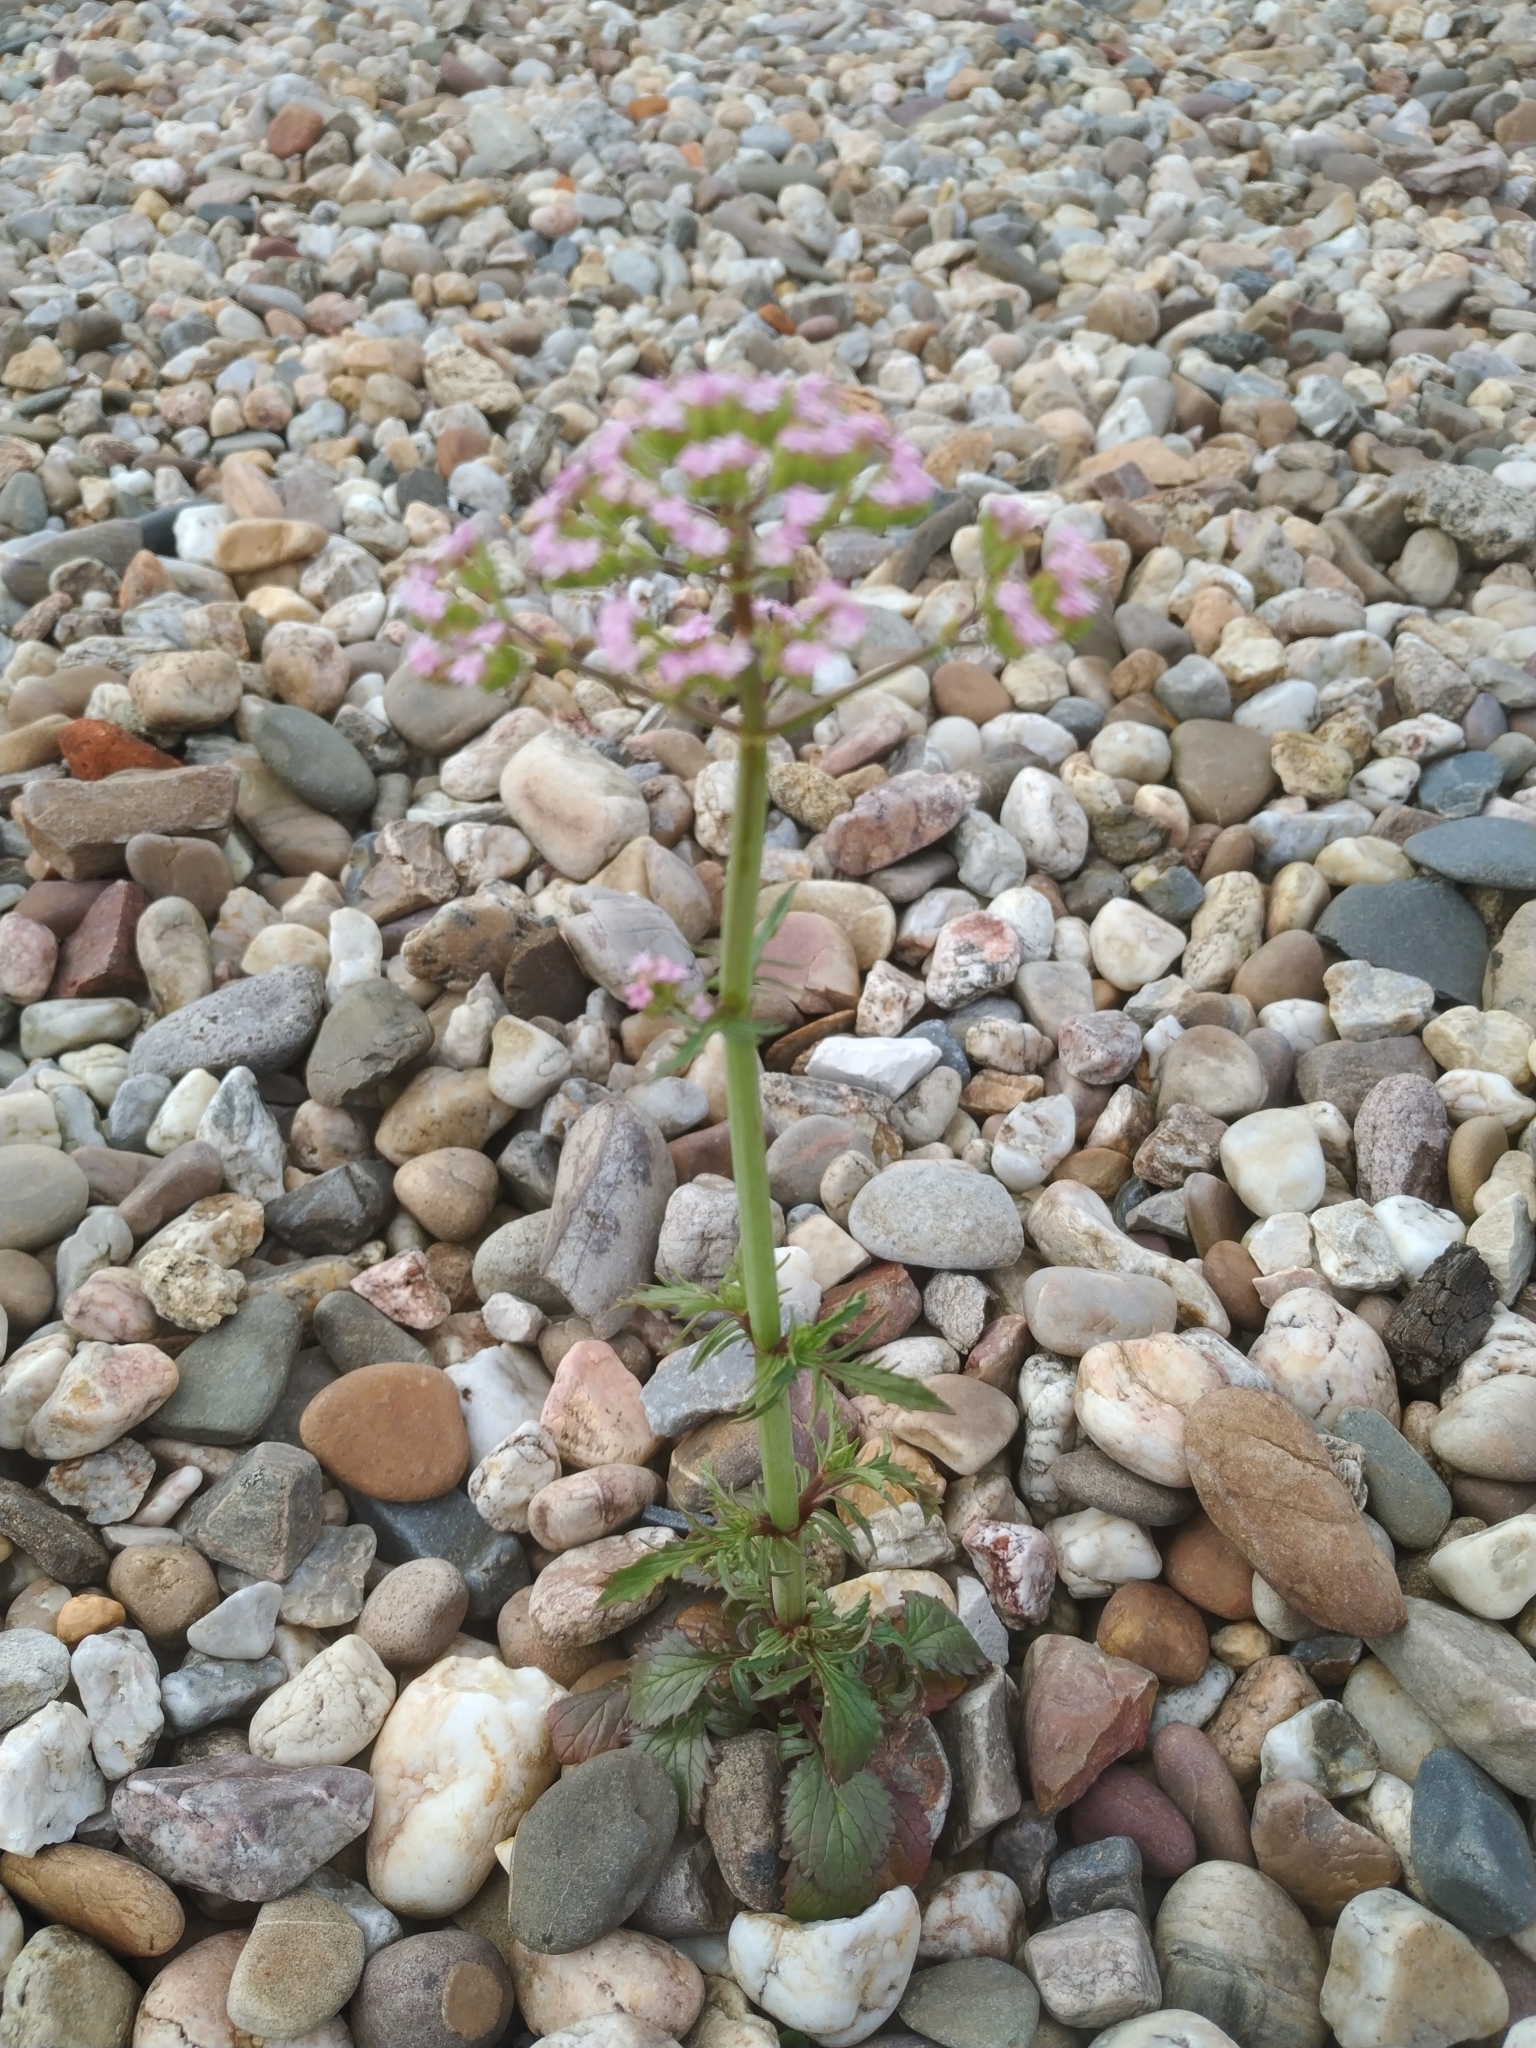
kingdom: Plantae
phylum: Tracheophyta
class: Magnoliopsida
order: Dipsacales
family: Caprifoliaceae
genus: Centranthus
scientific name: Centranthus calcitrapae
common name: Annual valerian
